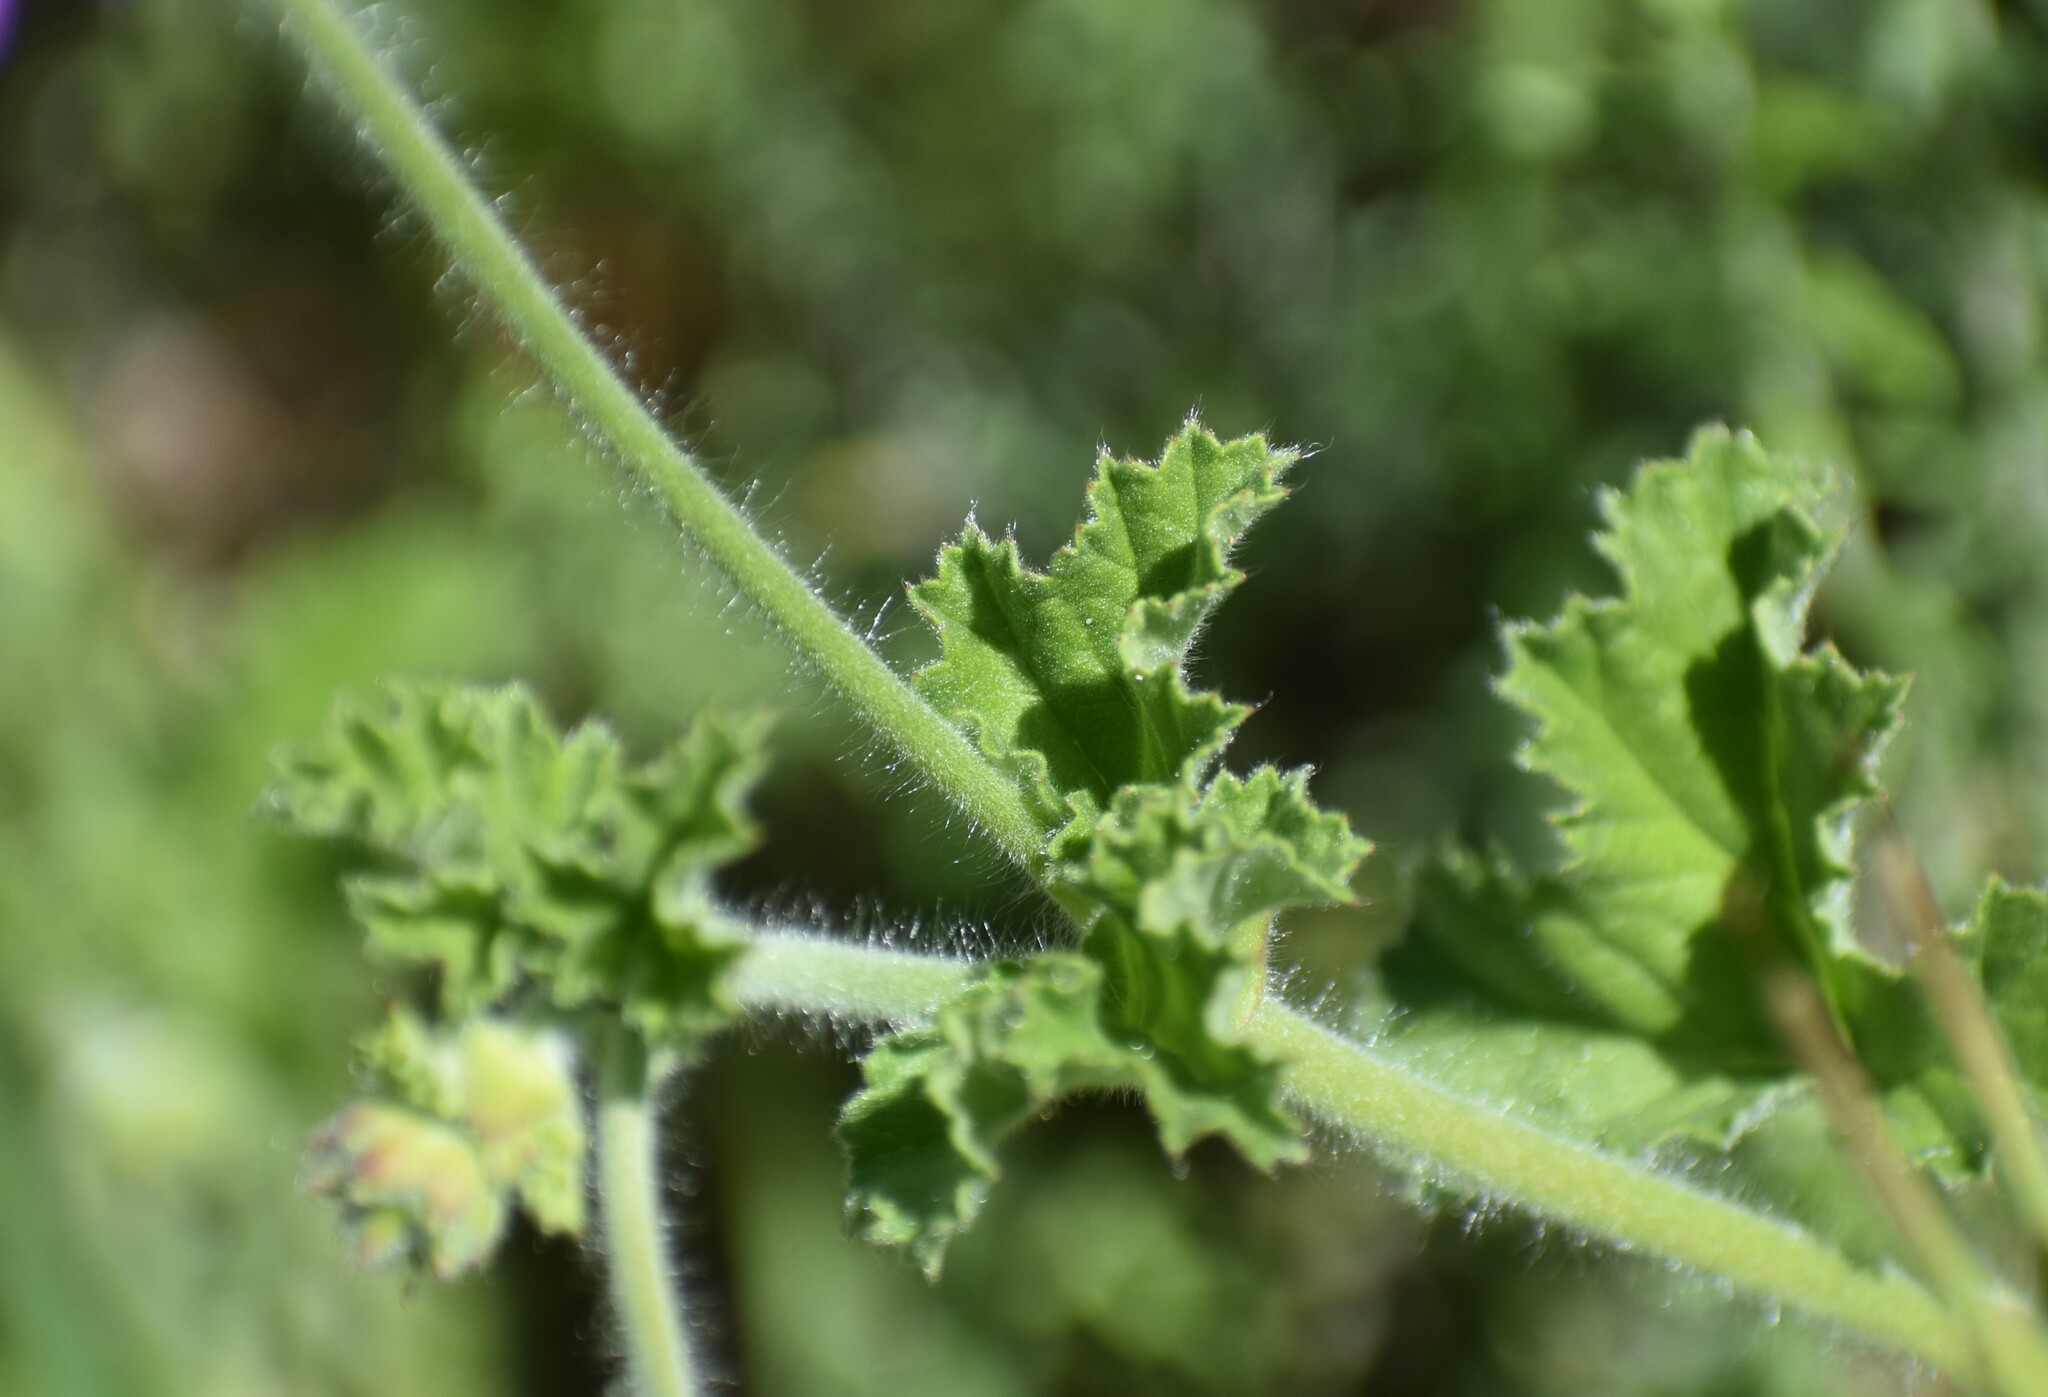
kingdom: Plantae
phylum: Tracheophyta
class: Magnoliopsida
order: Geraniales
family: Geraniaceae
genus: Pelargonium
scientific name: Pelargonium capitatum
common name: Rose scented geranium
